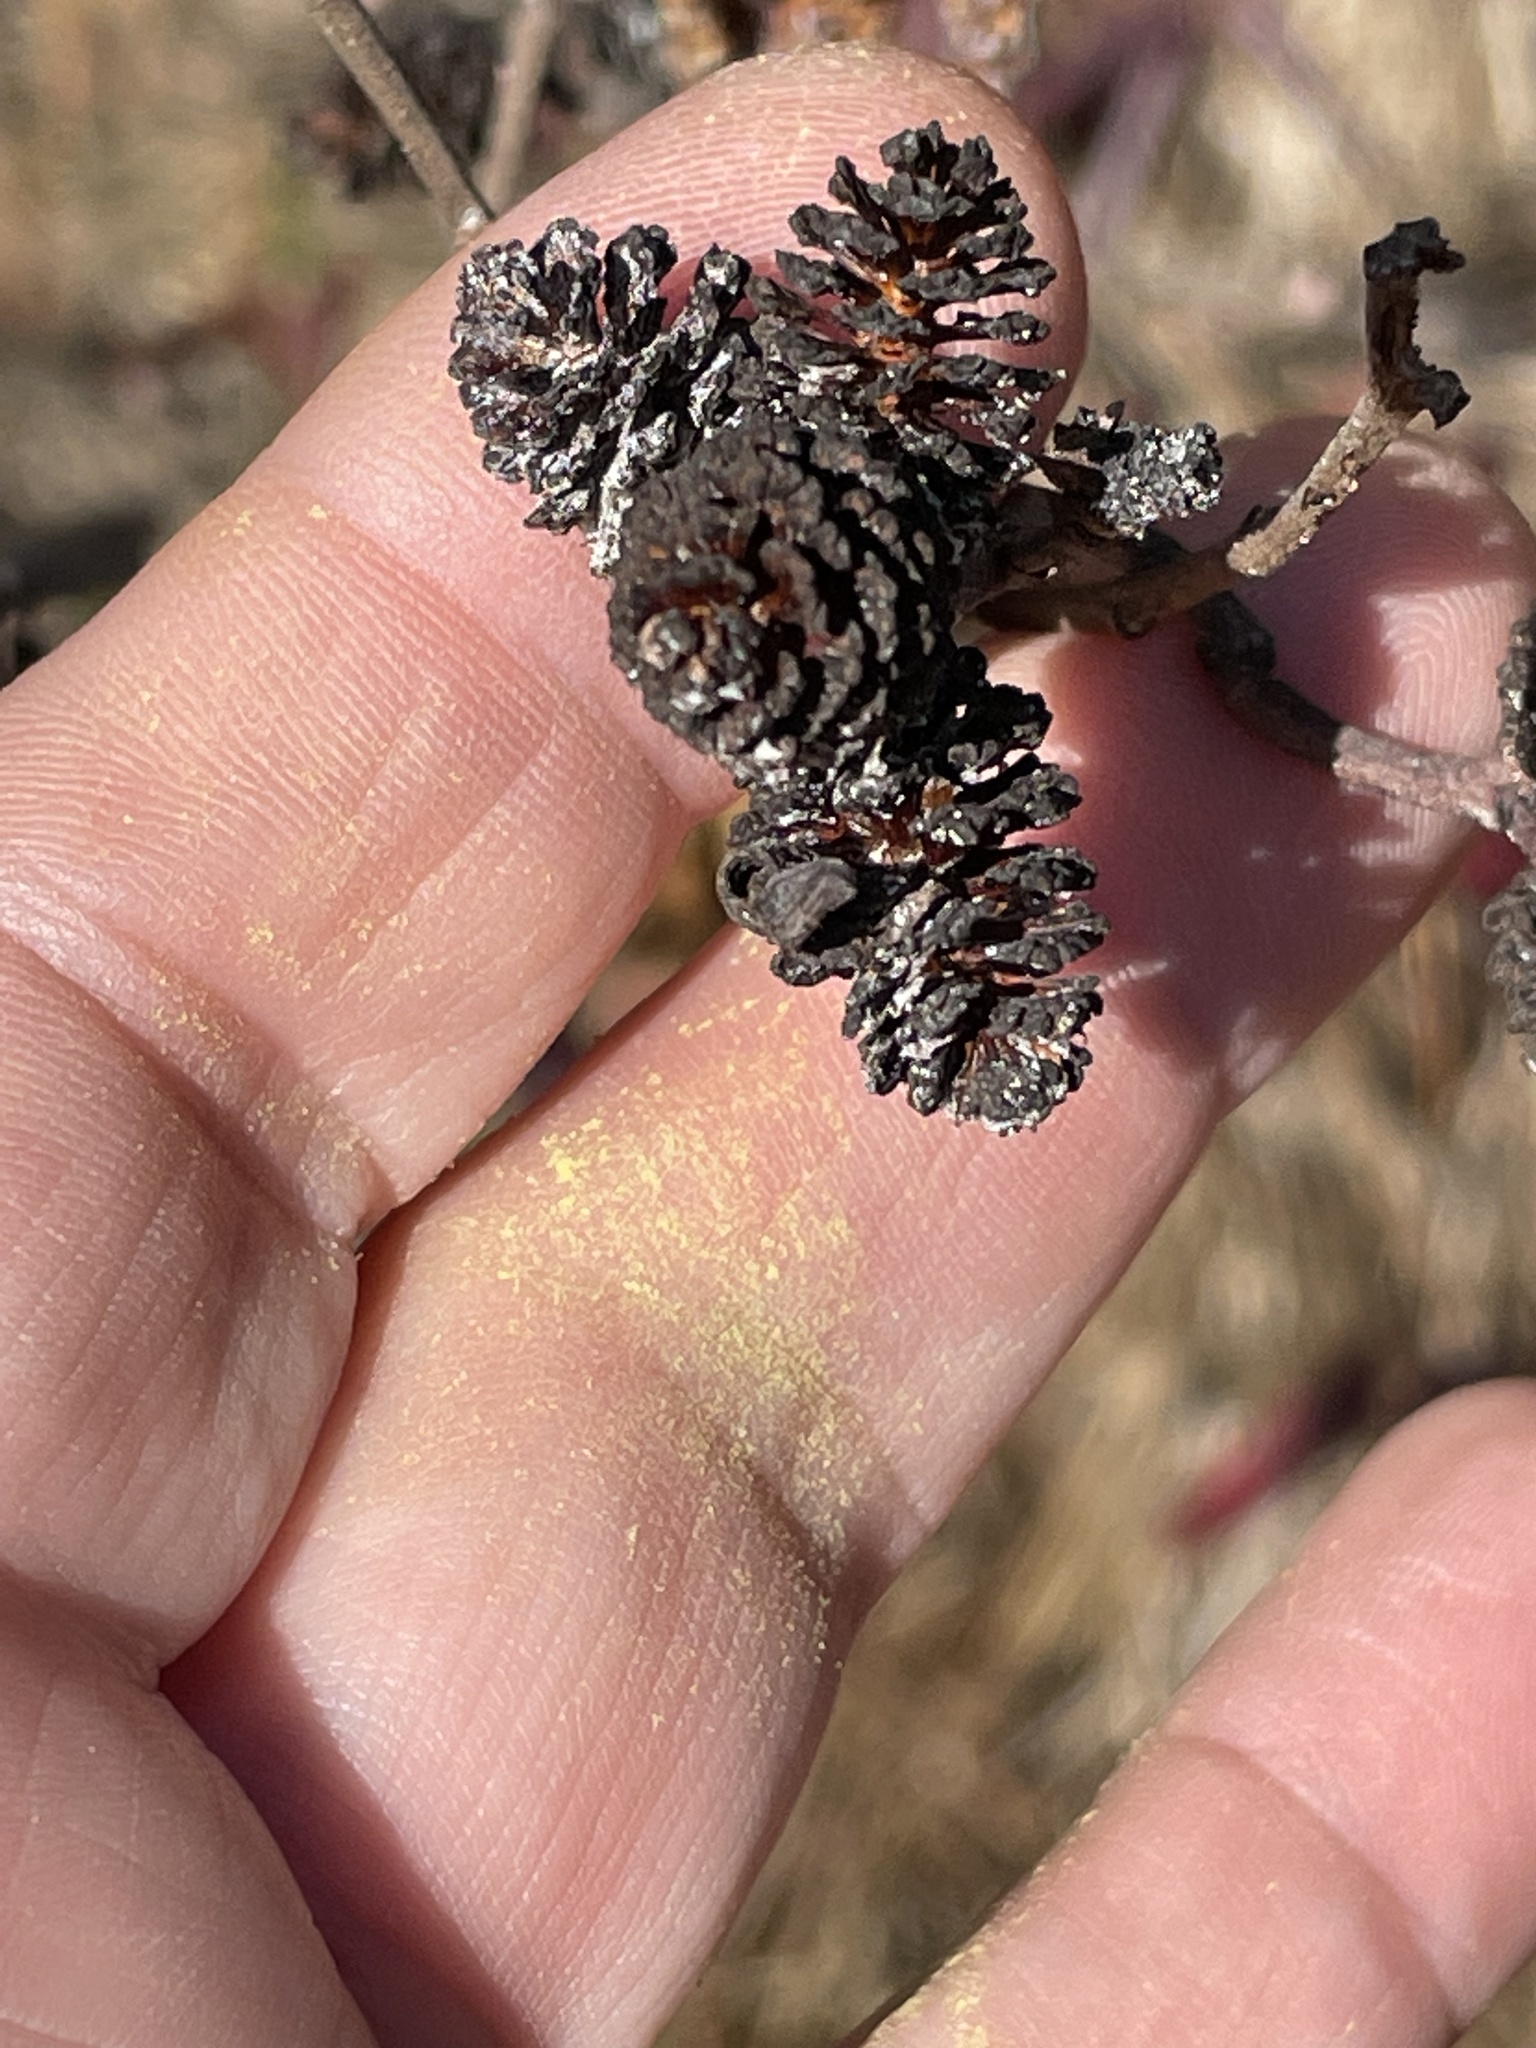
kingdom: Plantae
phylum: Tracheophyta
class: Magnoliopsida
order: Fagales
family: Betulaceae
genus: Alnus
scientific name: Alnus serrulata
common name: Hazel alder
